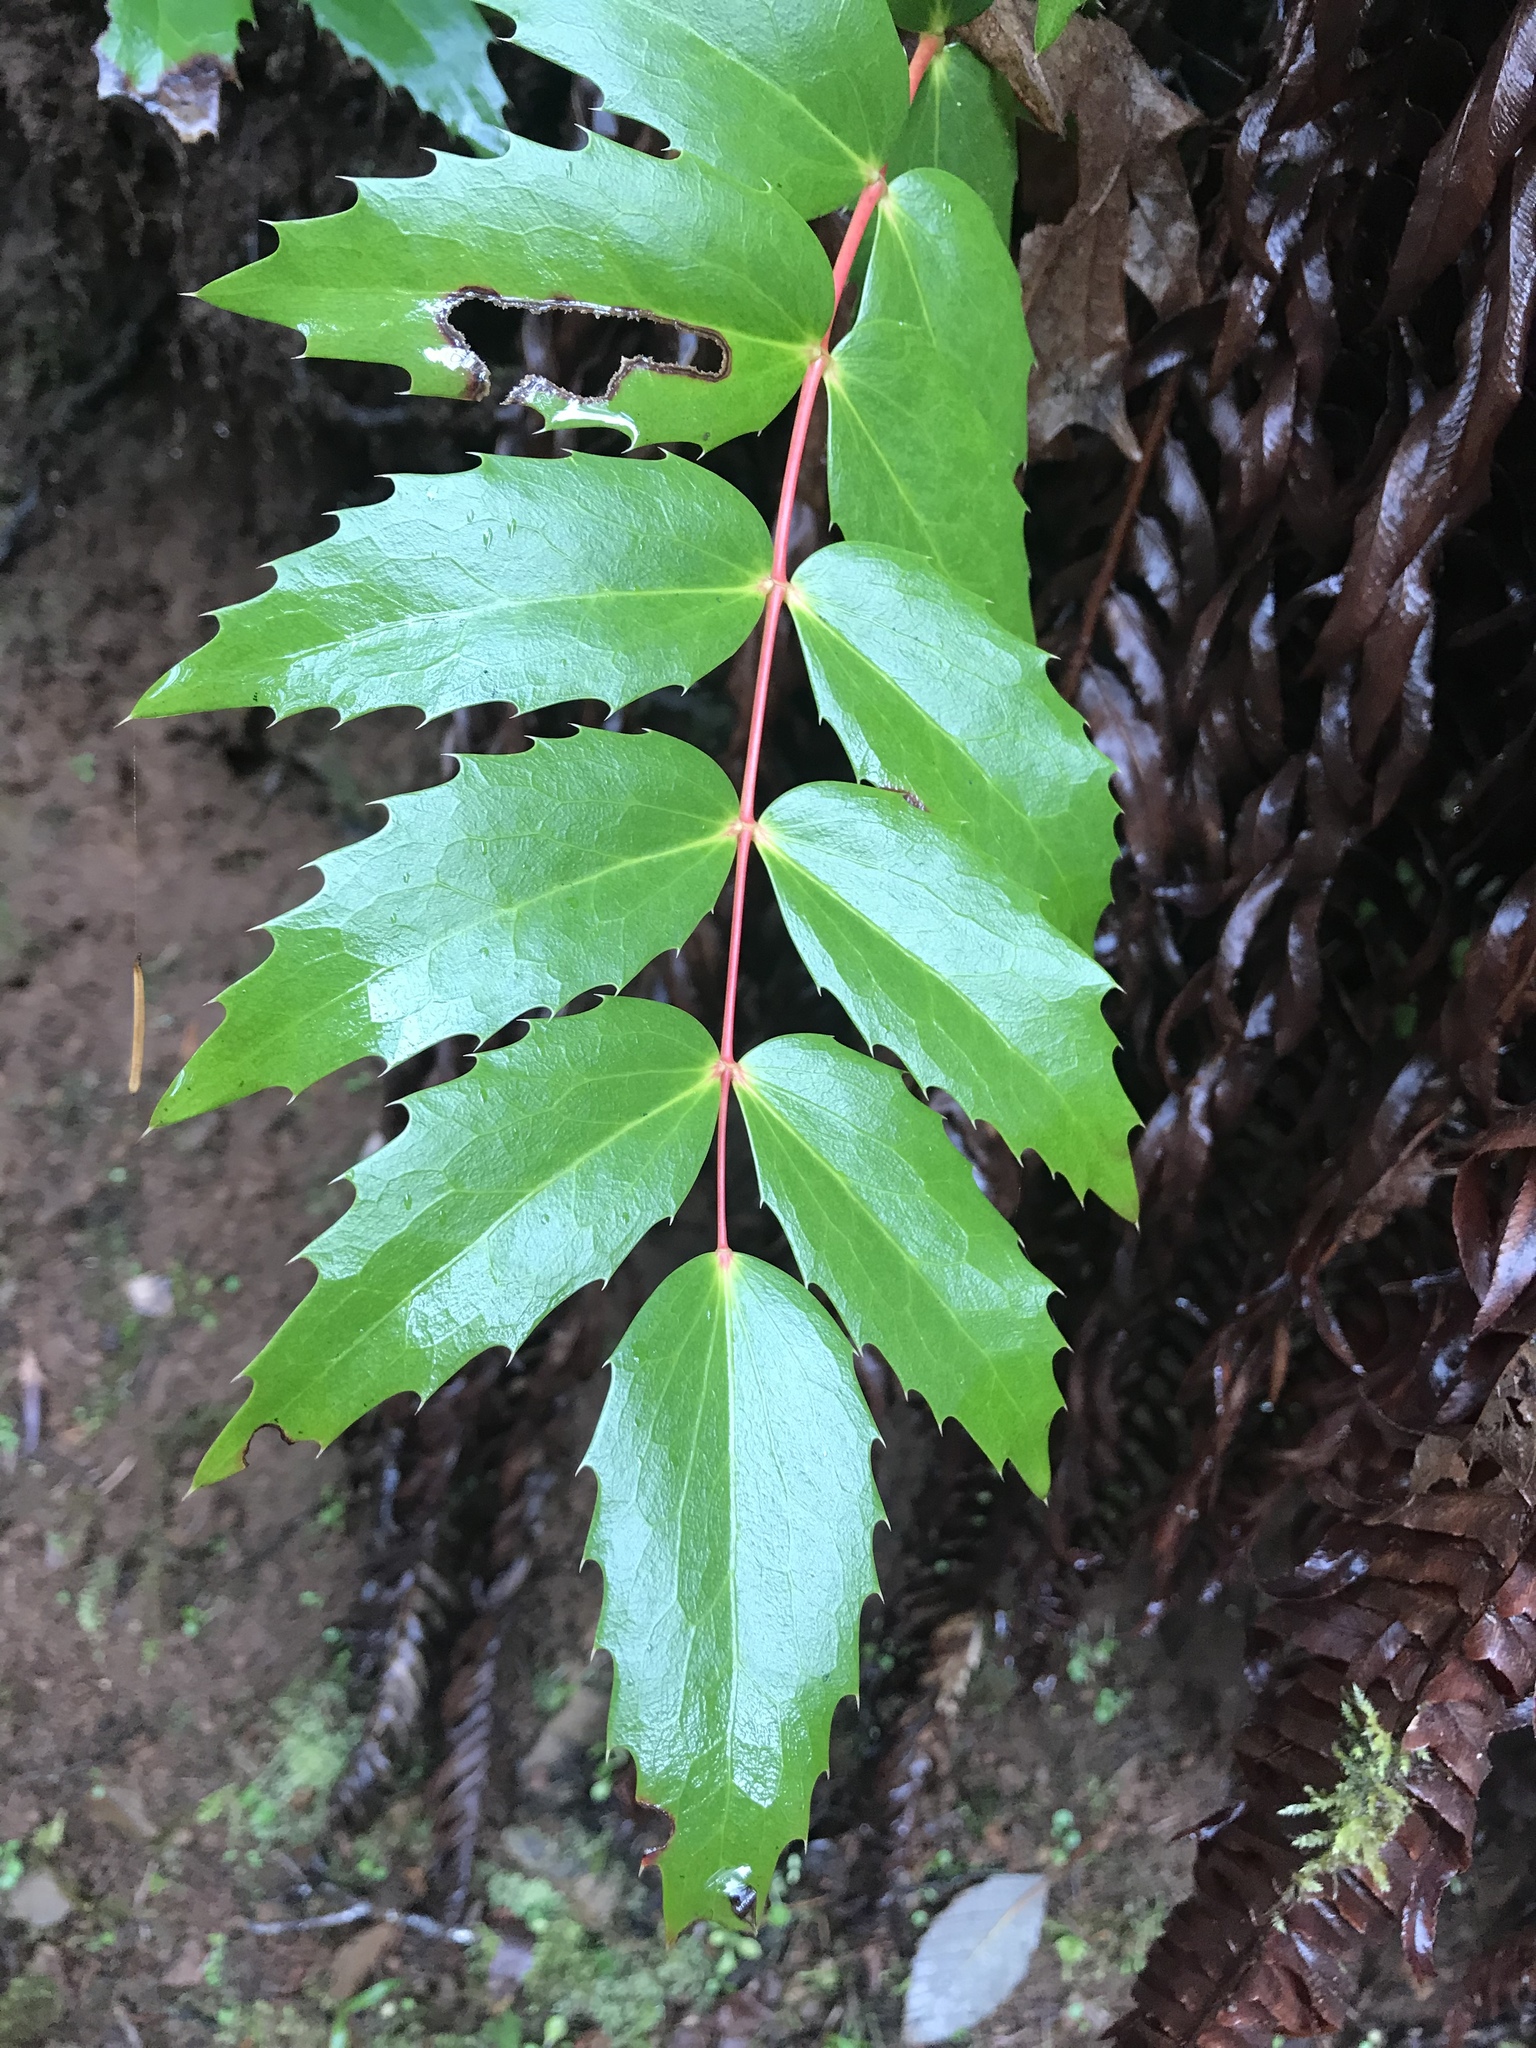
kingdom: Plantae
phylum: Tracheophyta
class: Magnoliopsida
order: Ranunculales
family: Berberidaceae
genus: Mahonia
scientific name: Mahonia nervosa
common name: Cascade oregon-grape
